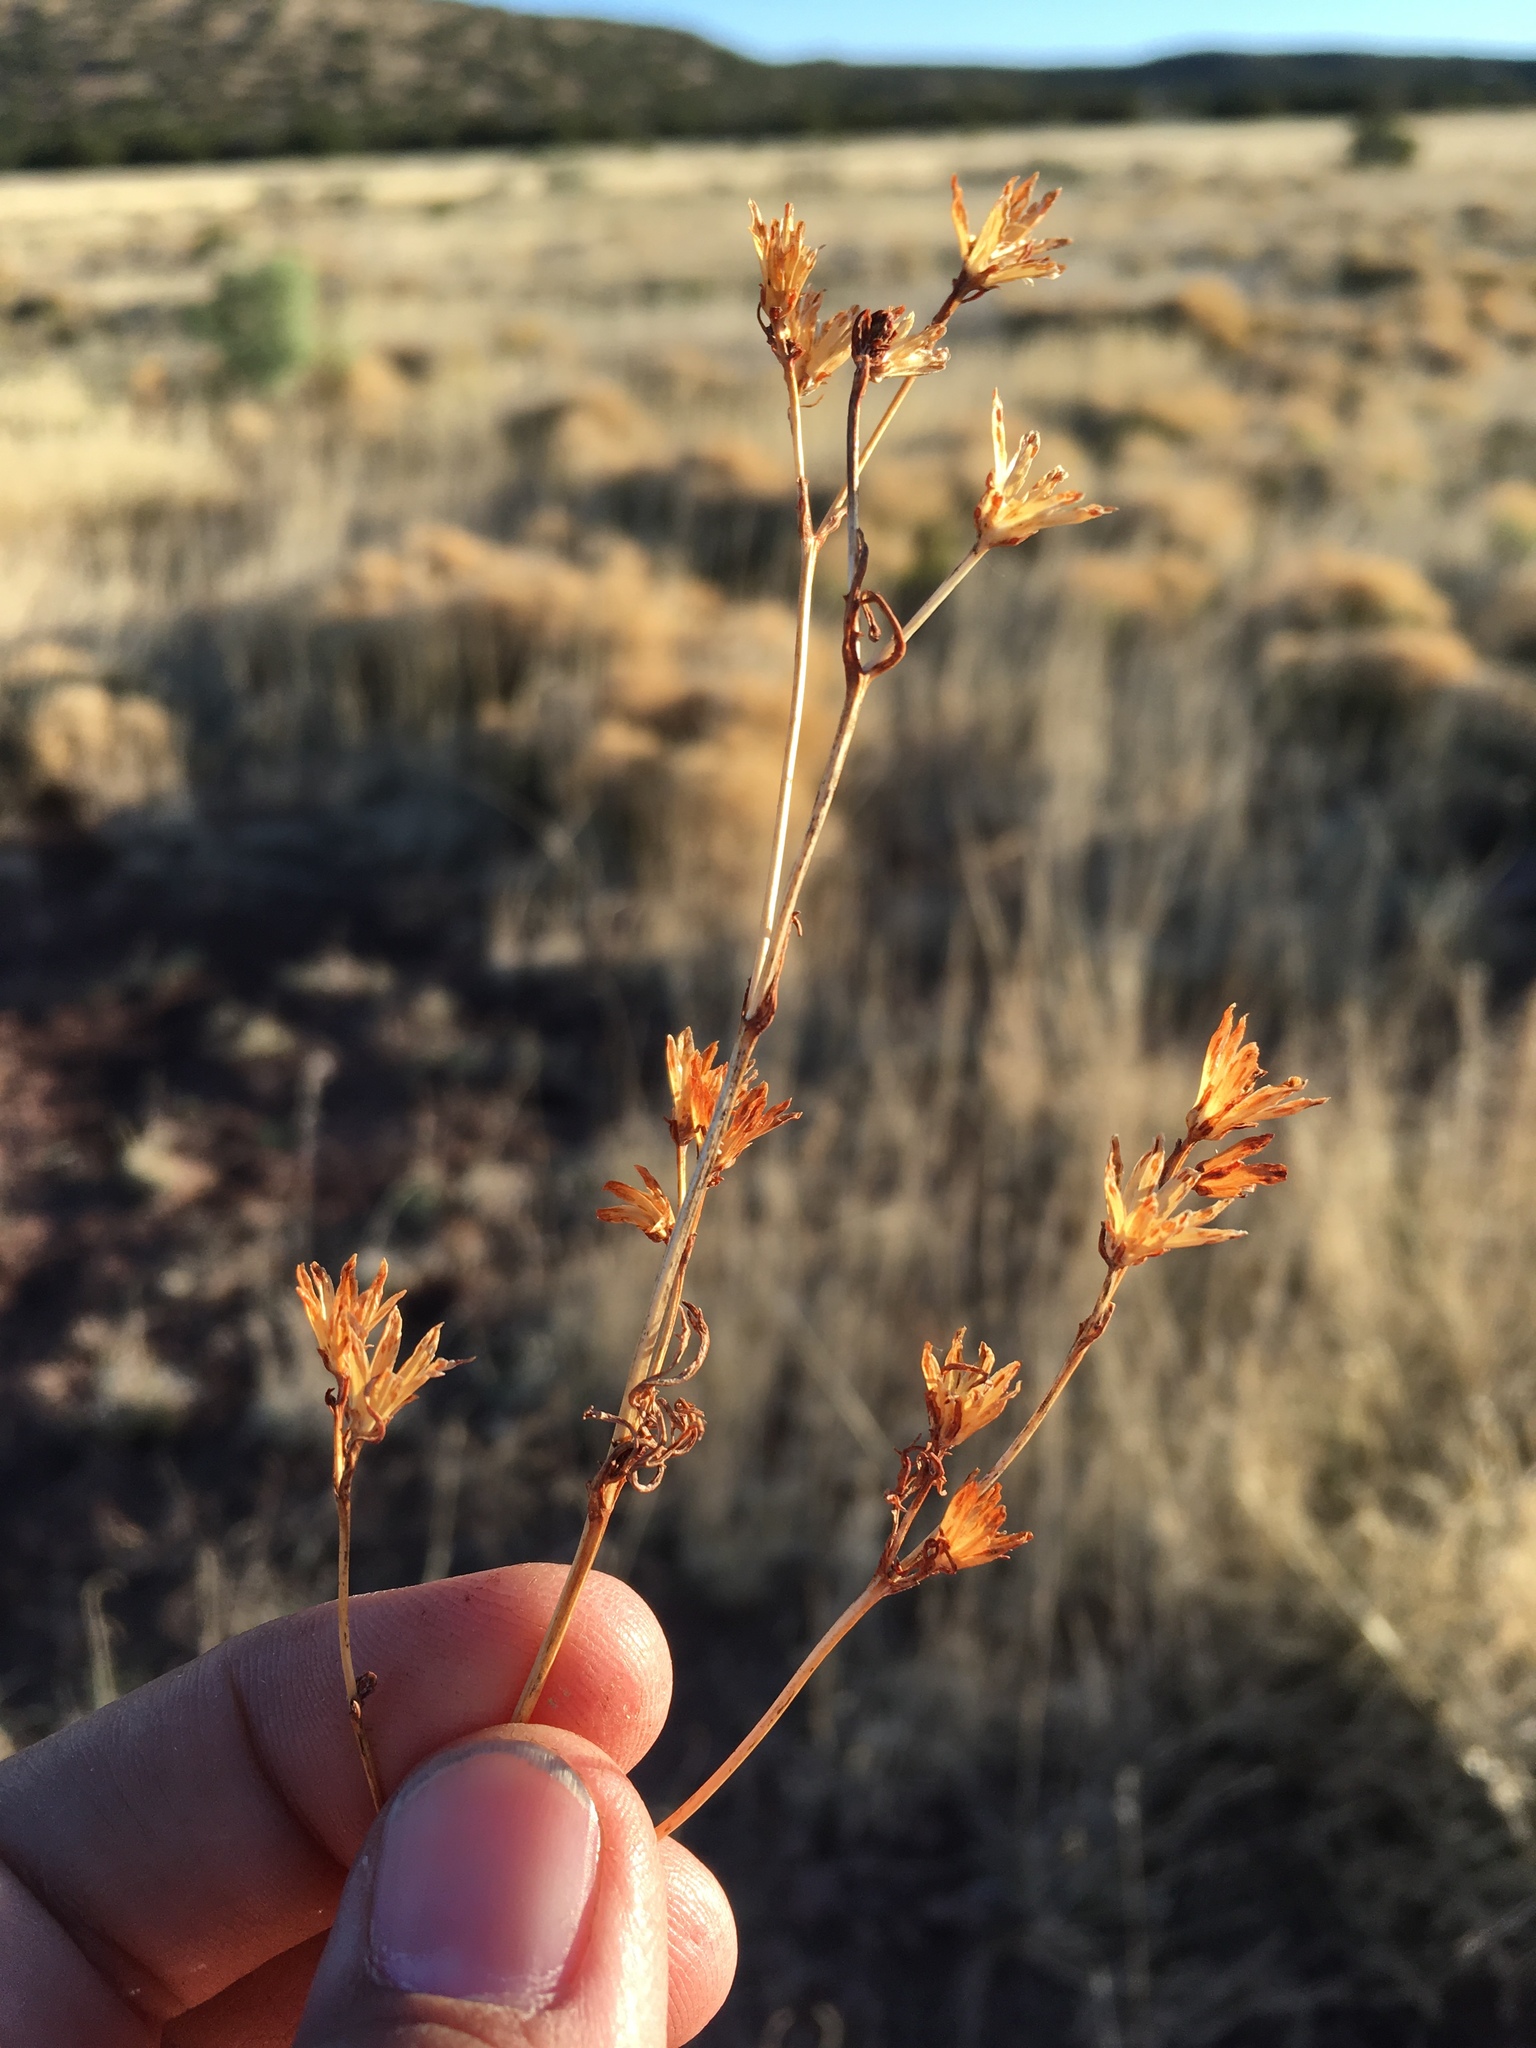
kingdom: Plantae
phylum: Tracheophyta
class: Magnoliopsida
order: Asterales
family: Asteraceae
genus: Dyssodia
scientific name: Dyssodia papposa
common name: Dogweed
